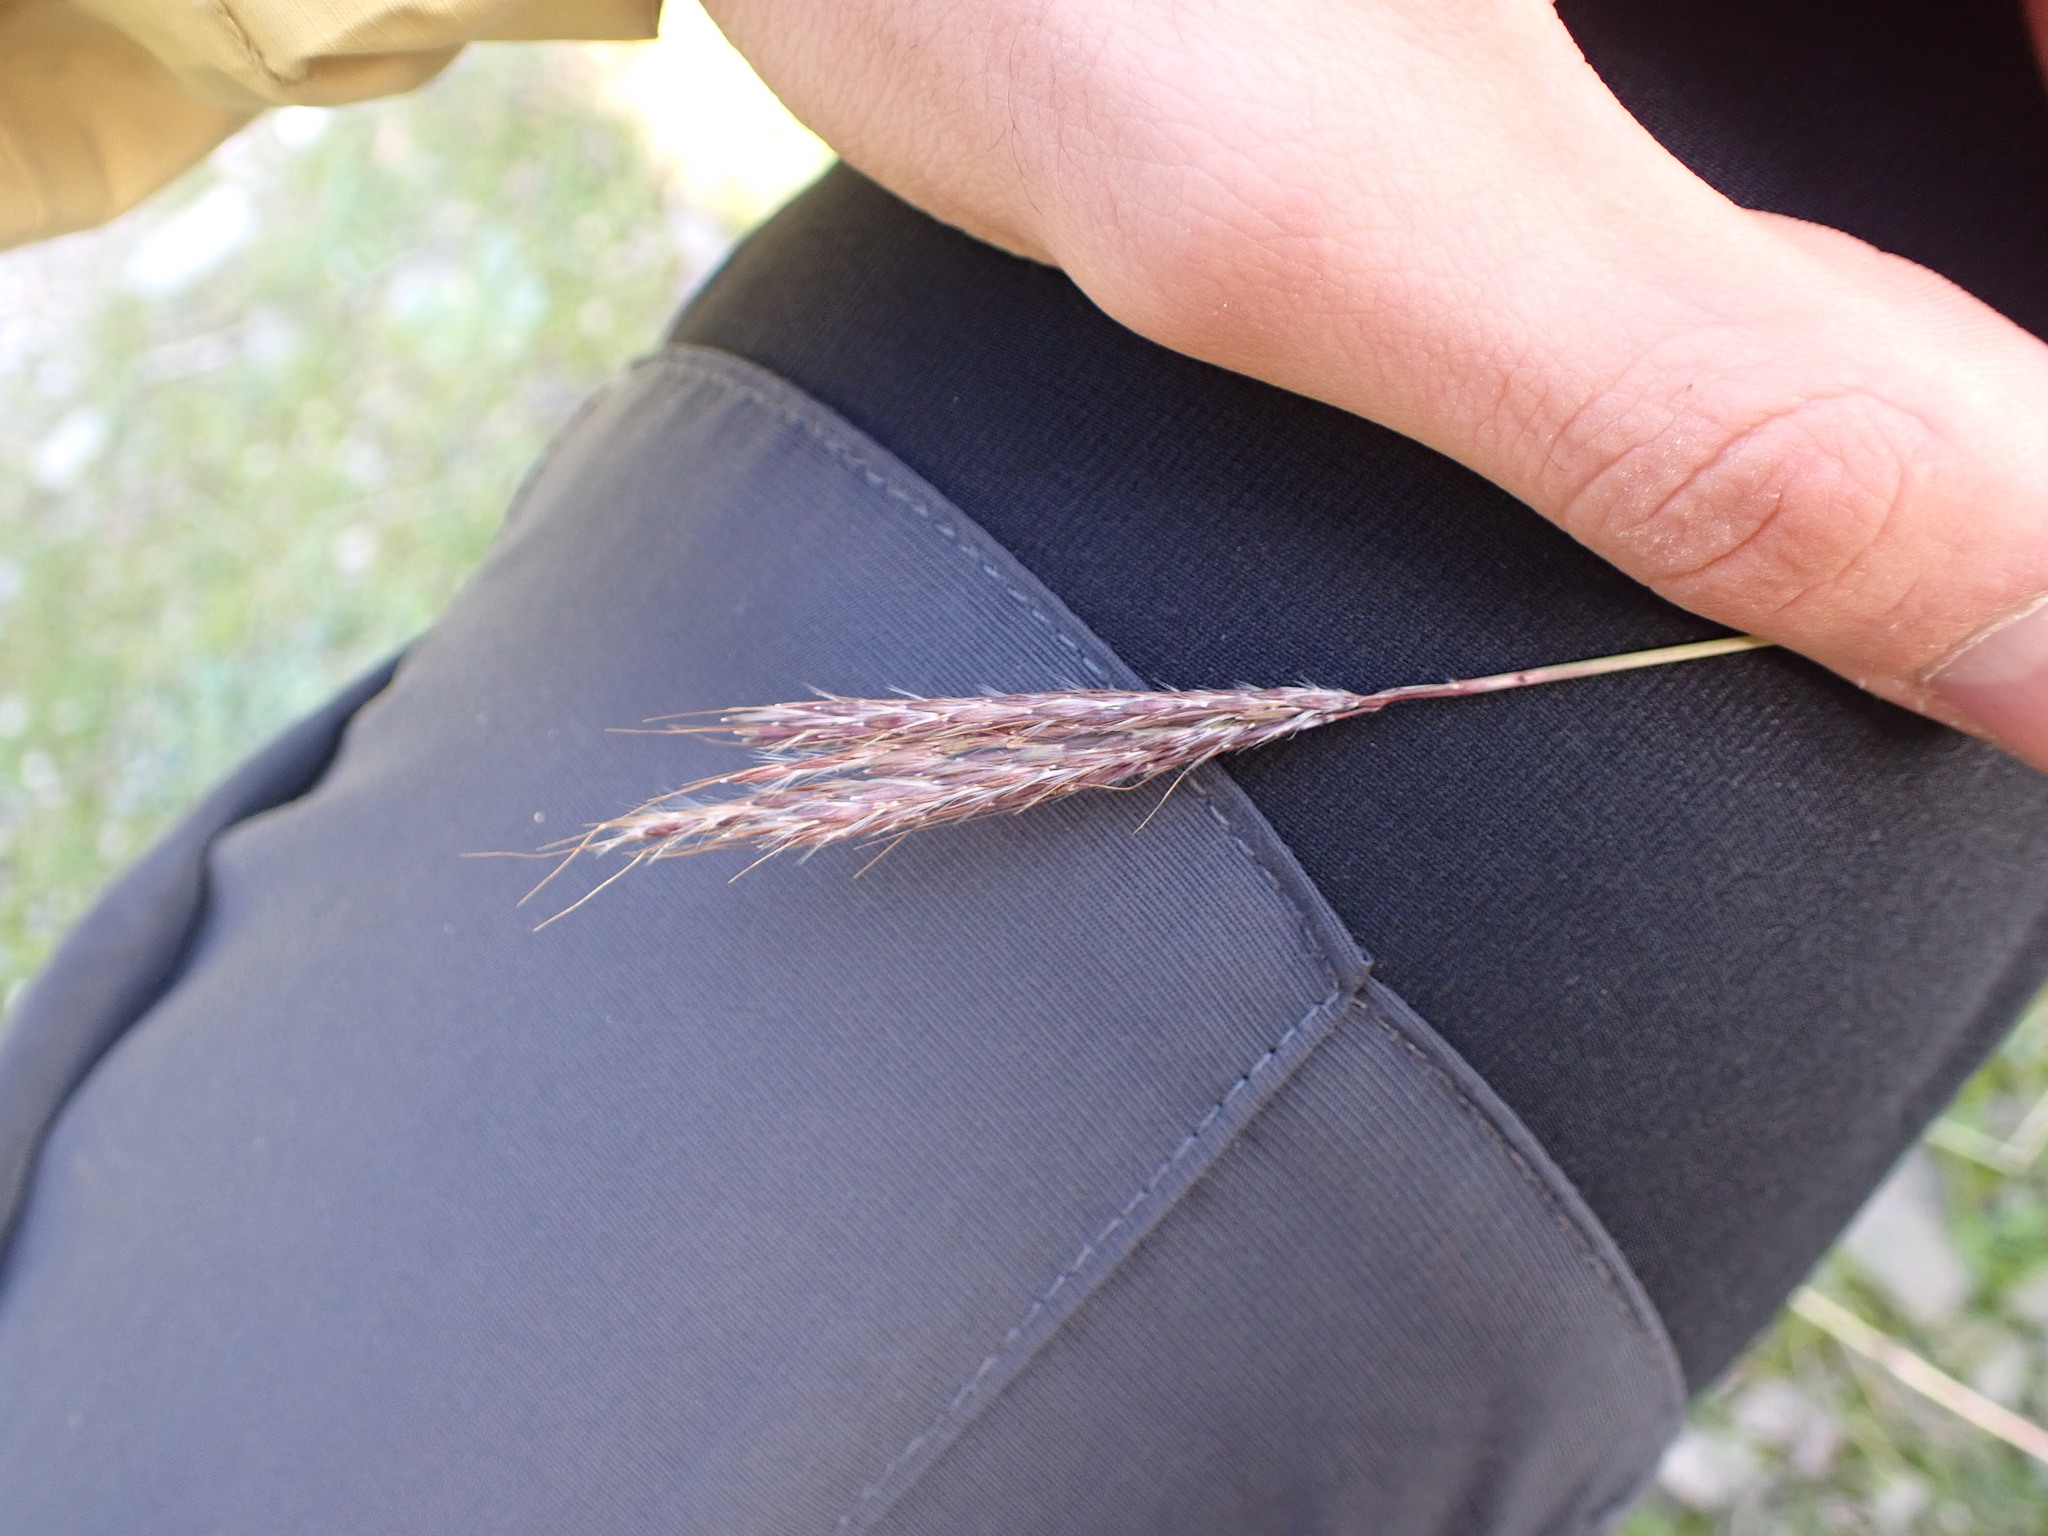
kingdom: Plantae
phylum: Tracheophyta
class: Liliopsida
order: Poales
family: Poaceae
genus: Bothriochloa
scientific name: Bothriochloa ischaemum
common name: Yellow bluestem
